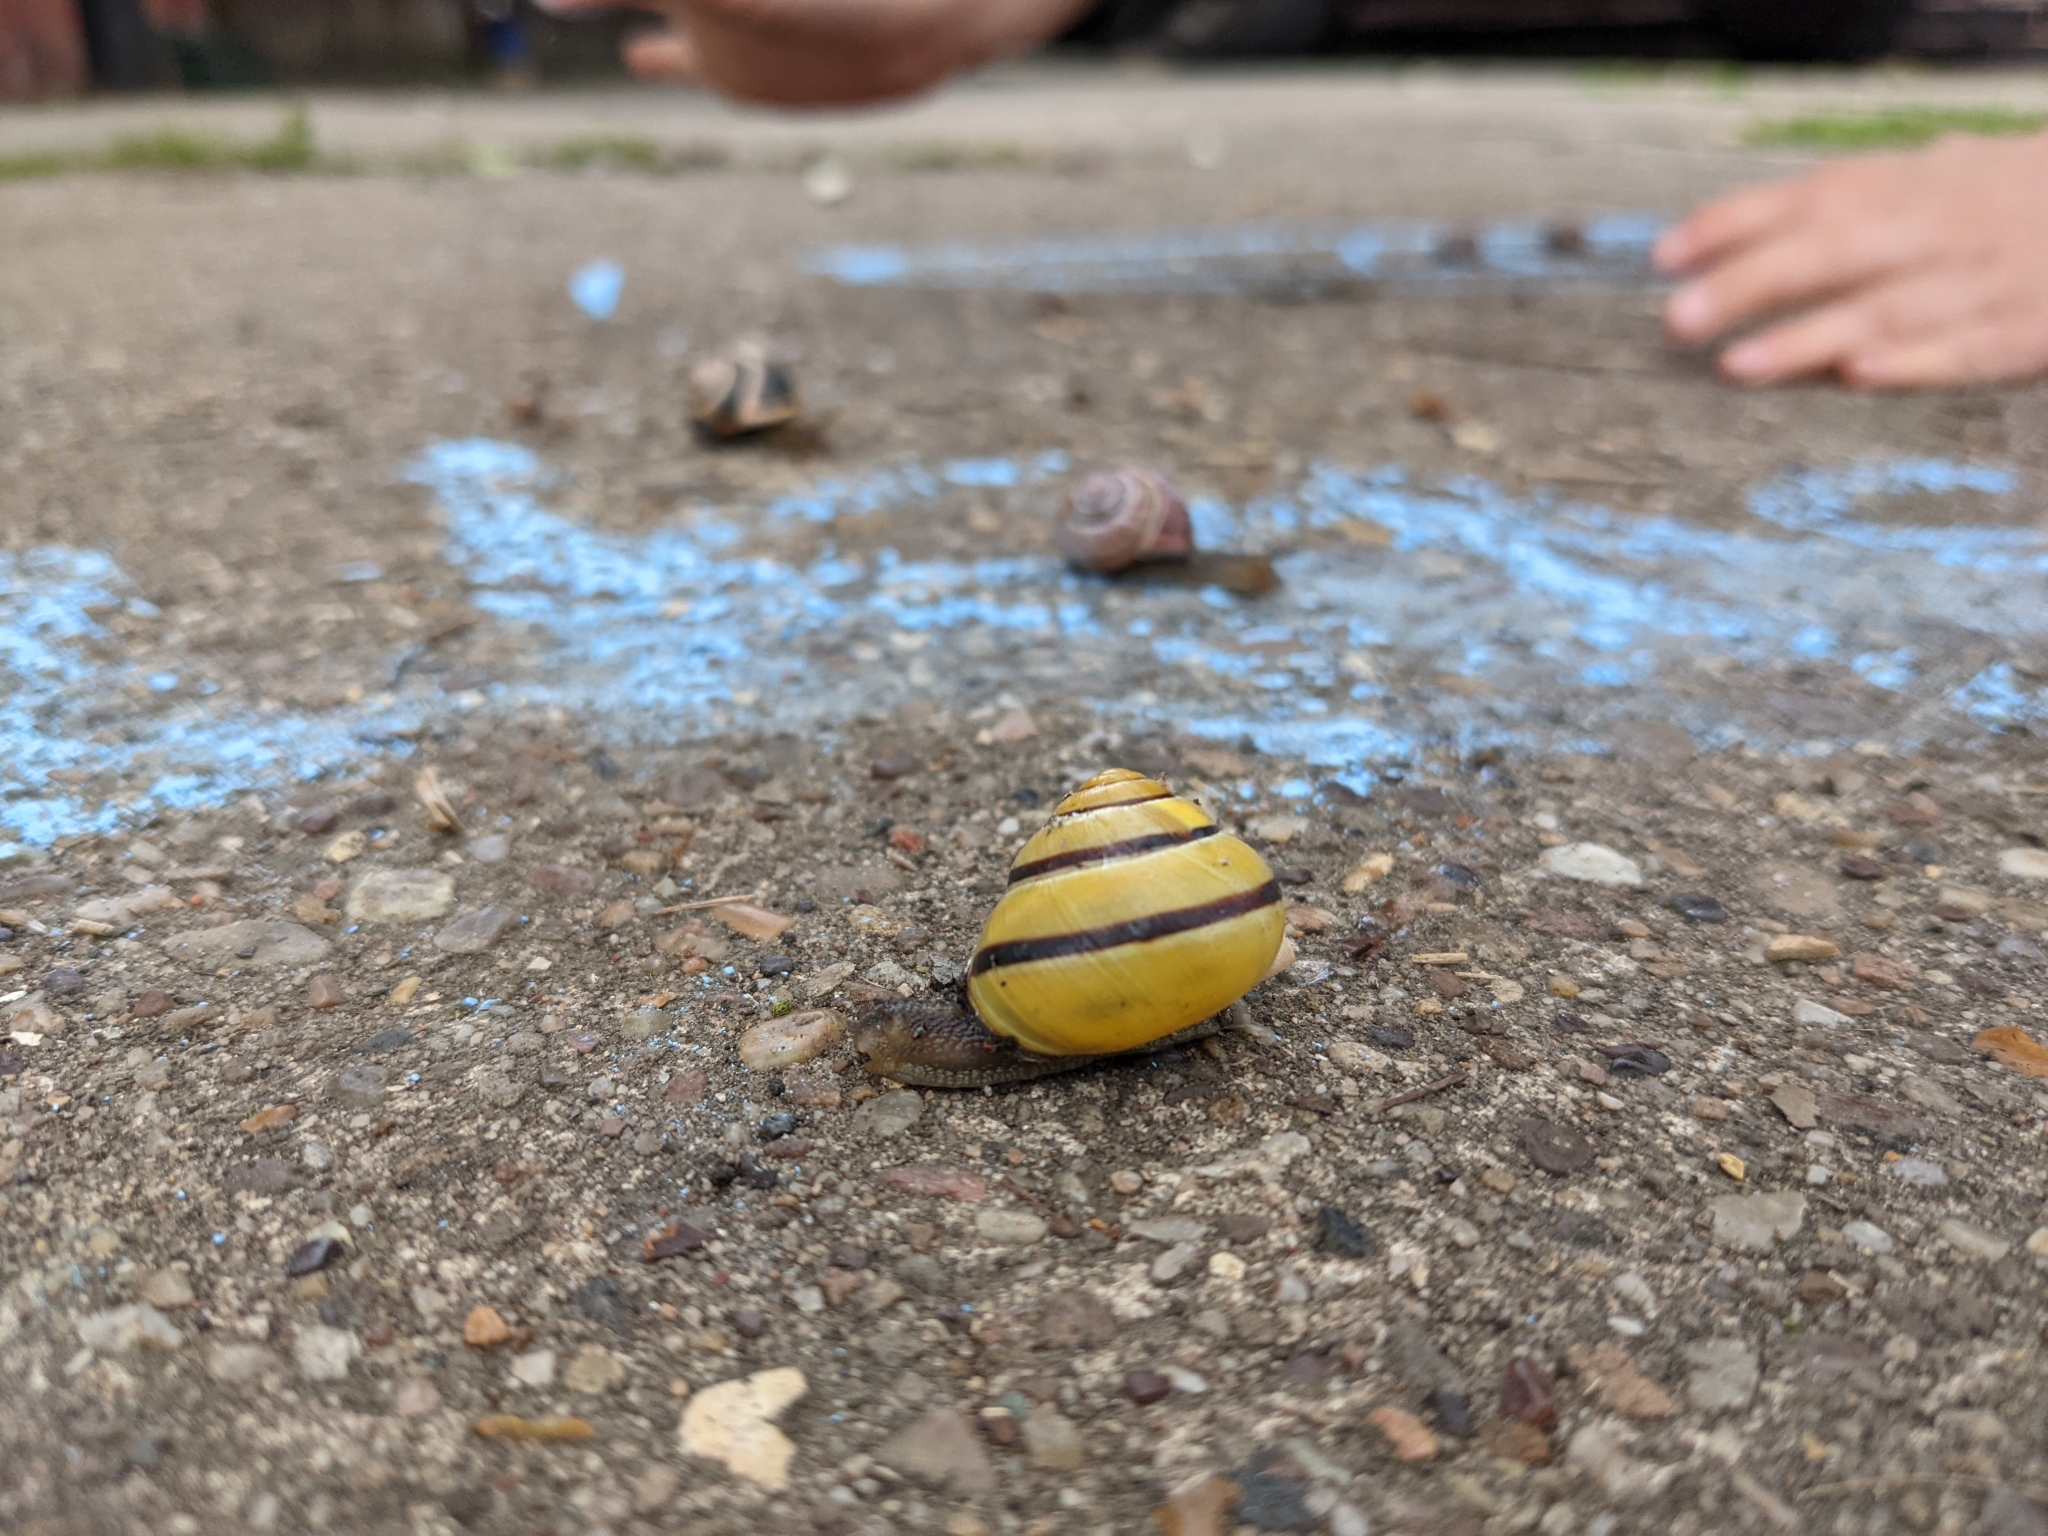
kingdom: Animalia
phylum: Mollusca
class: Gastropoda
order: Stylommatophora
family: Helicidae
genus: Cepaea
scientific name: Cepaea nemoralis
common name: Grovesnail
